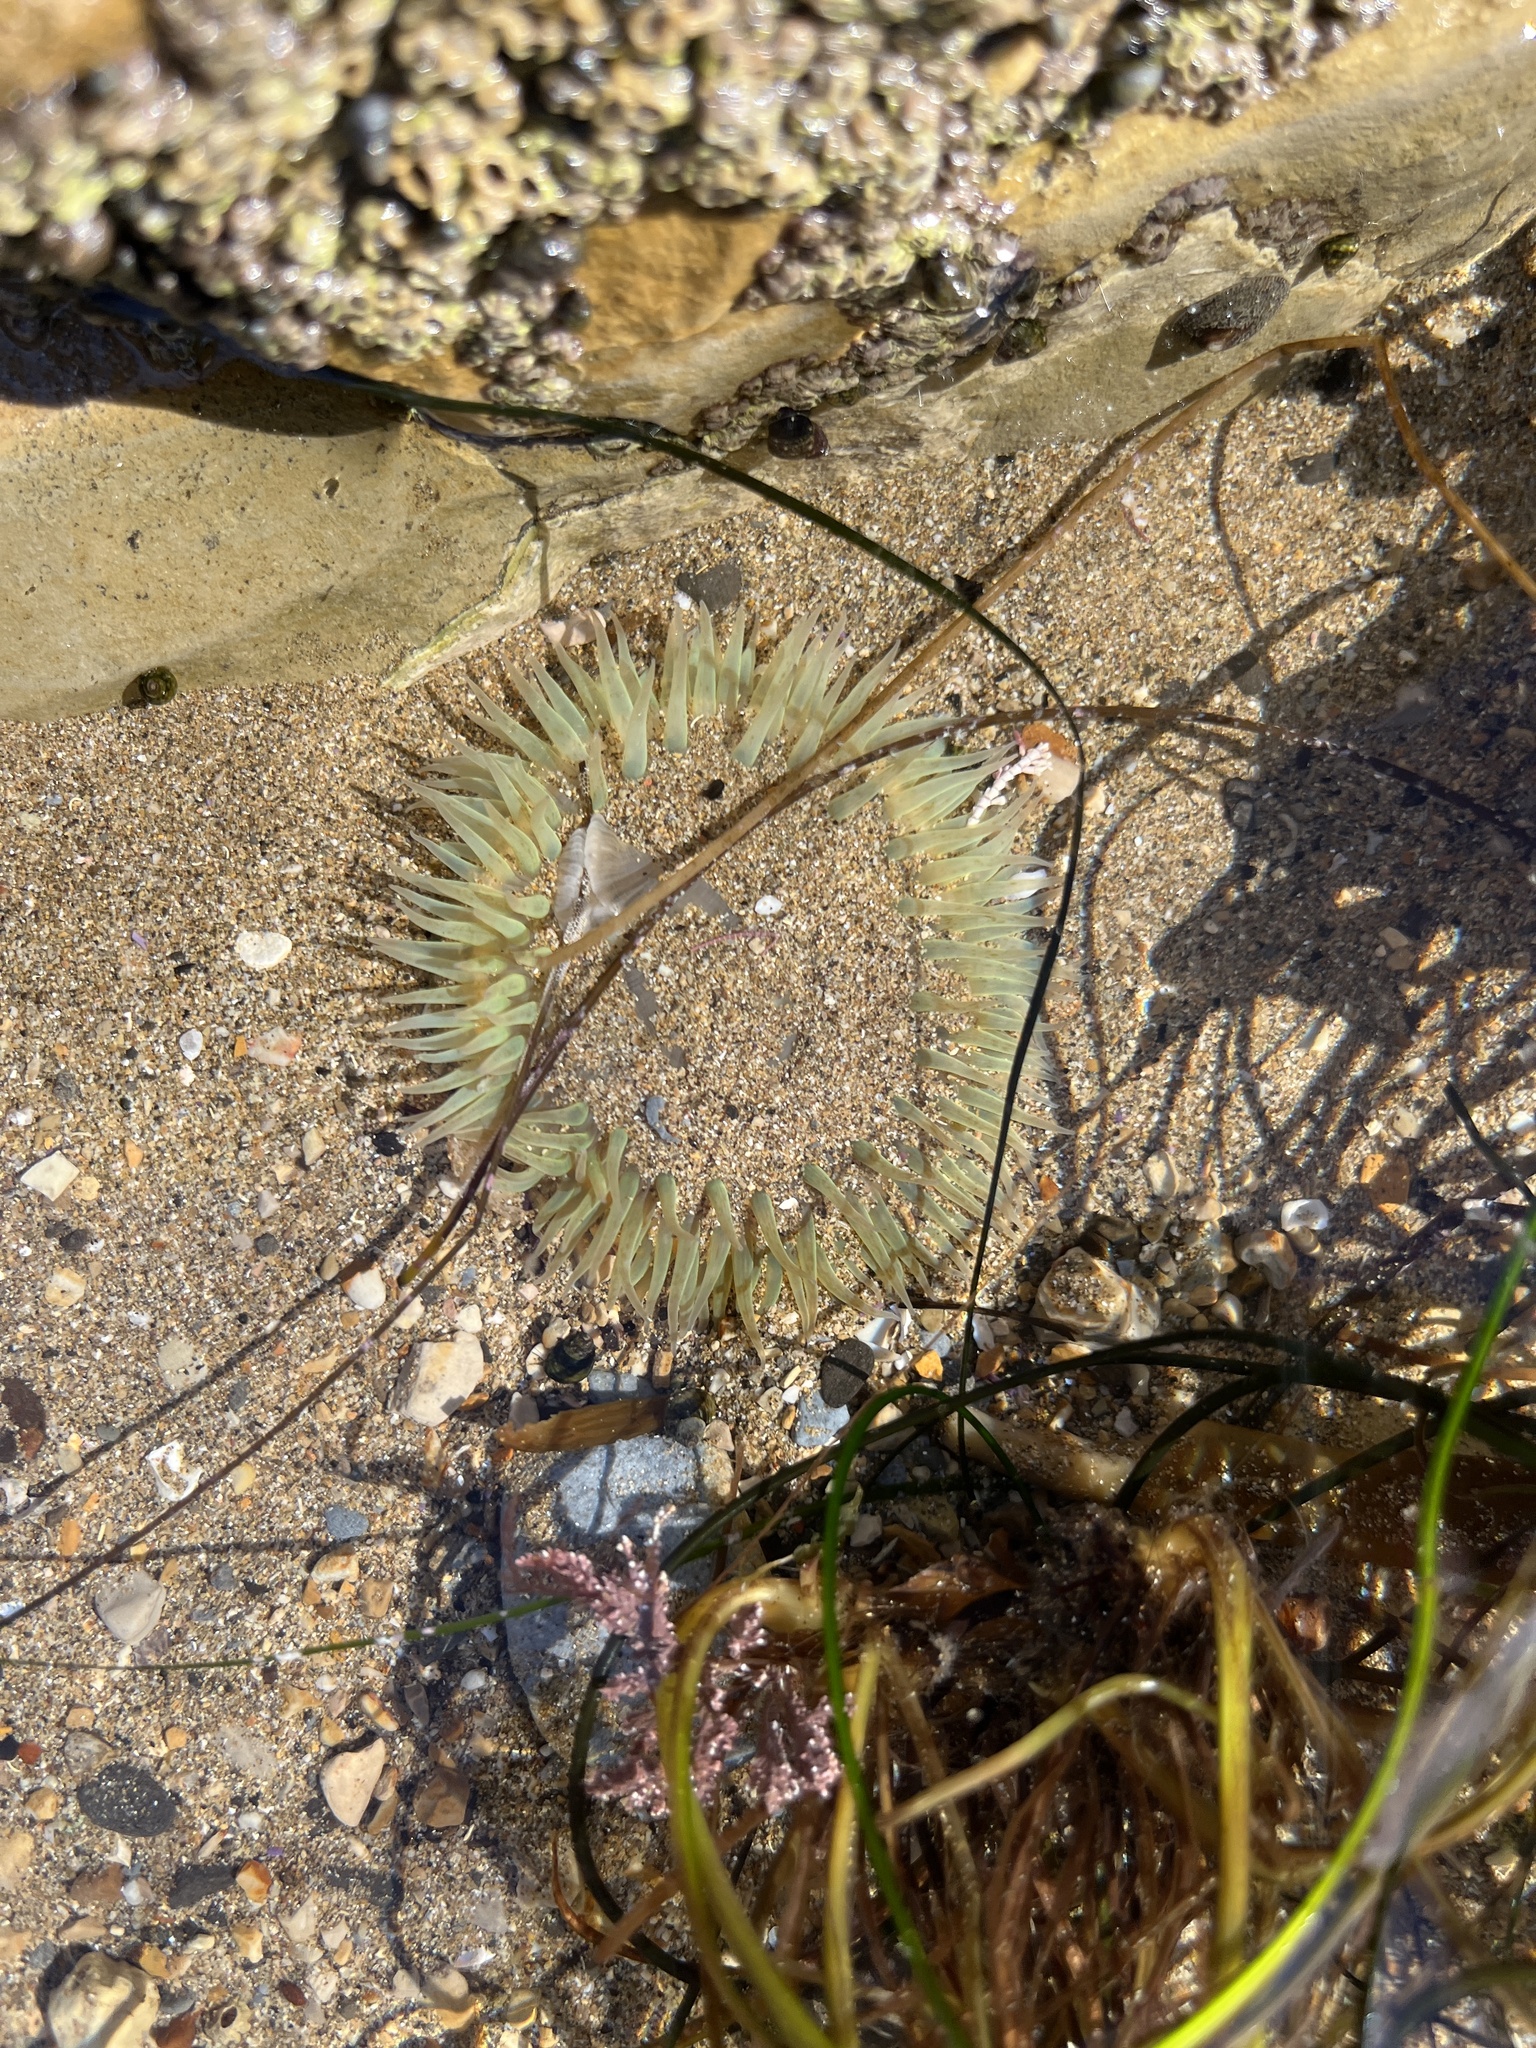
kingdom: Animalia
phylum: Cnidaria
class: Anthozoa
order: Actiniaria
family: Actiniidae
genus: Anthopleura
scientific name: Anthopleura sola
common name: Sun anemone
